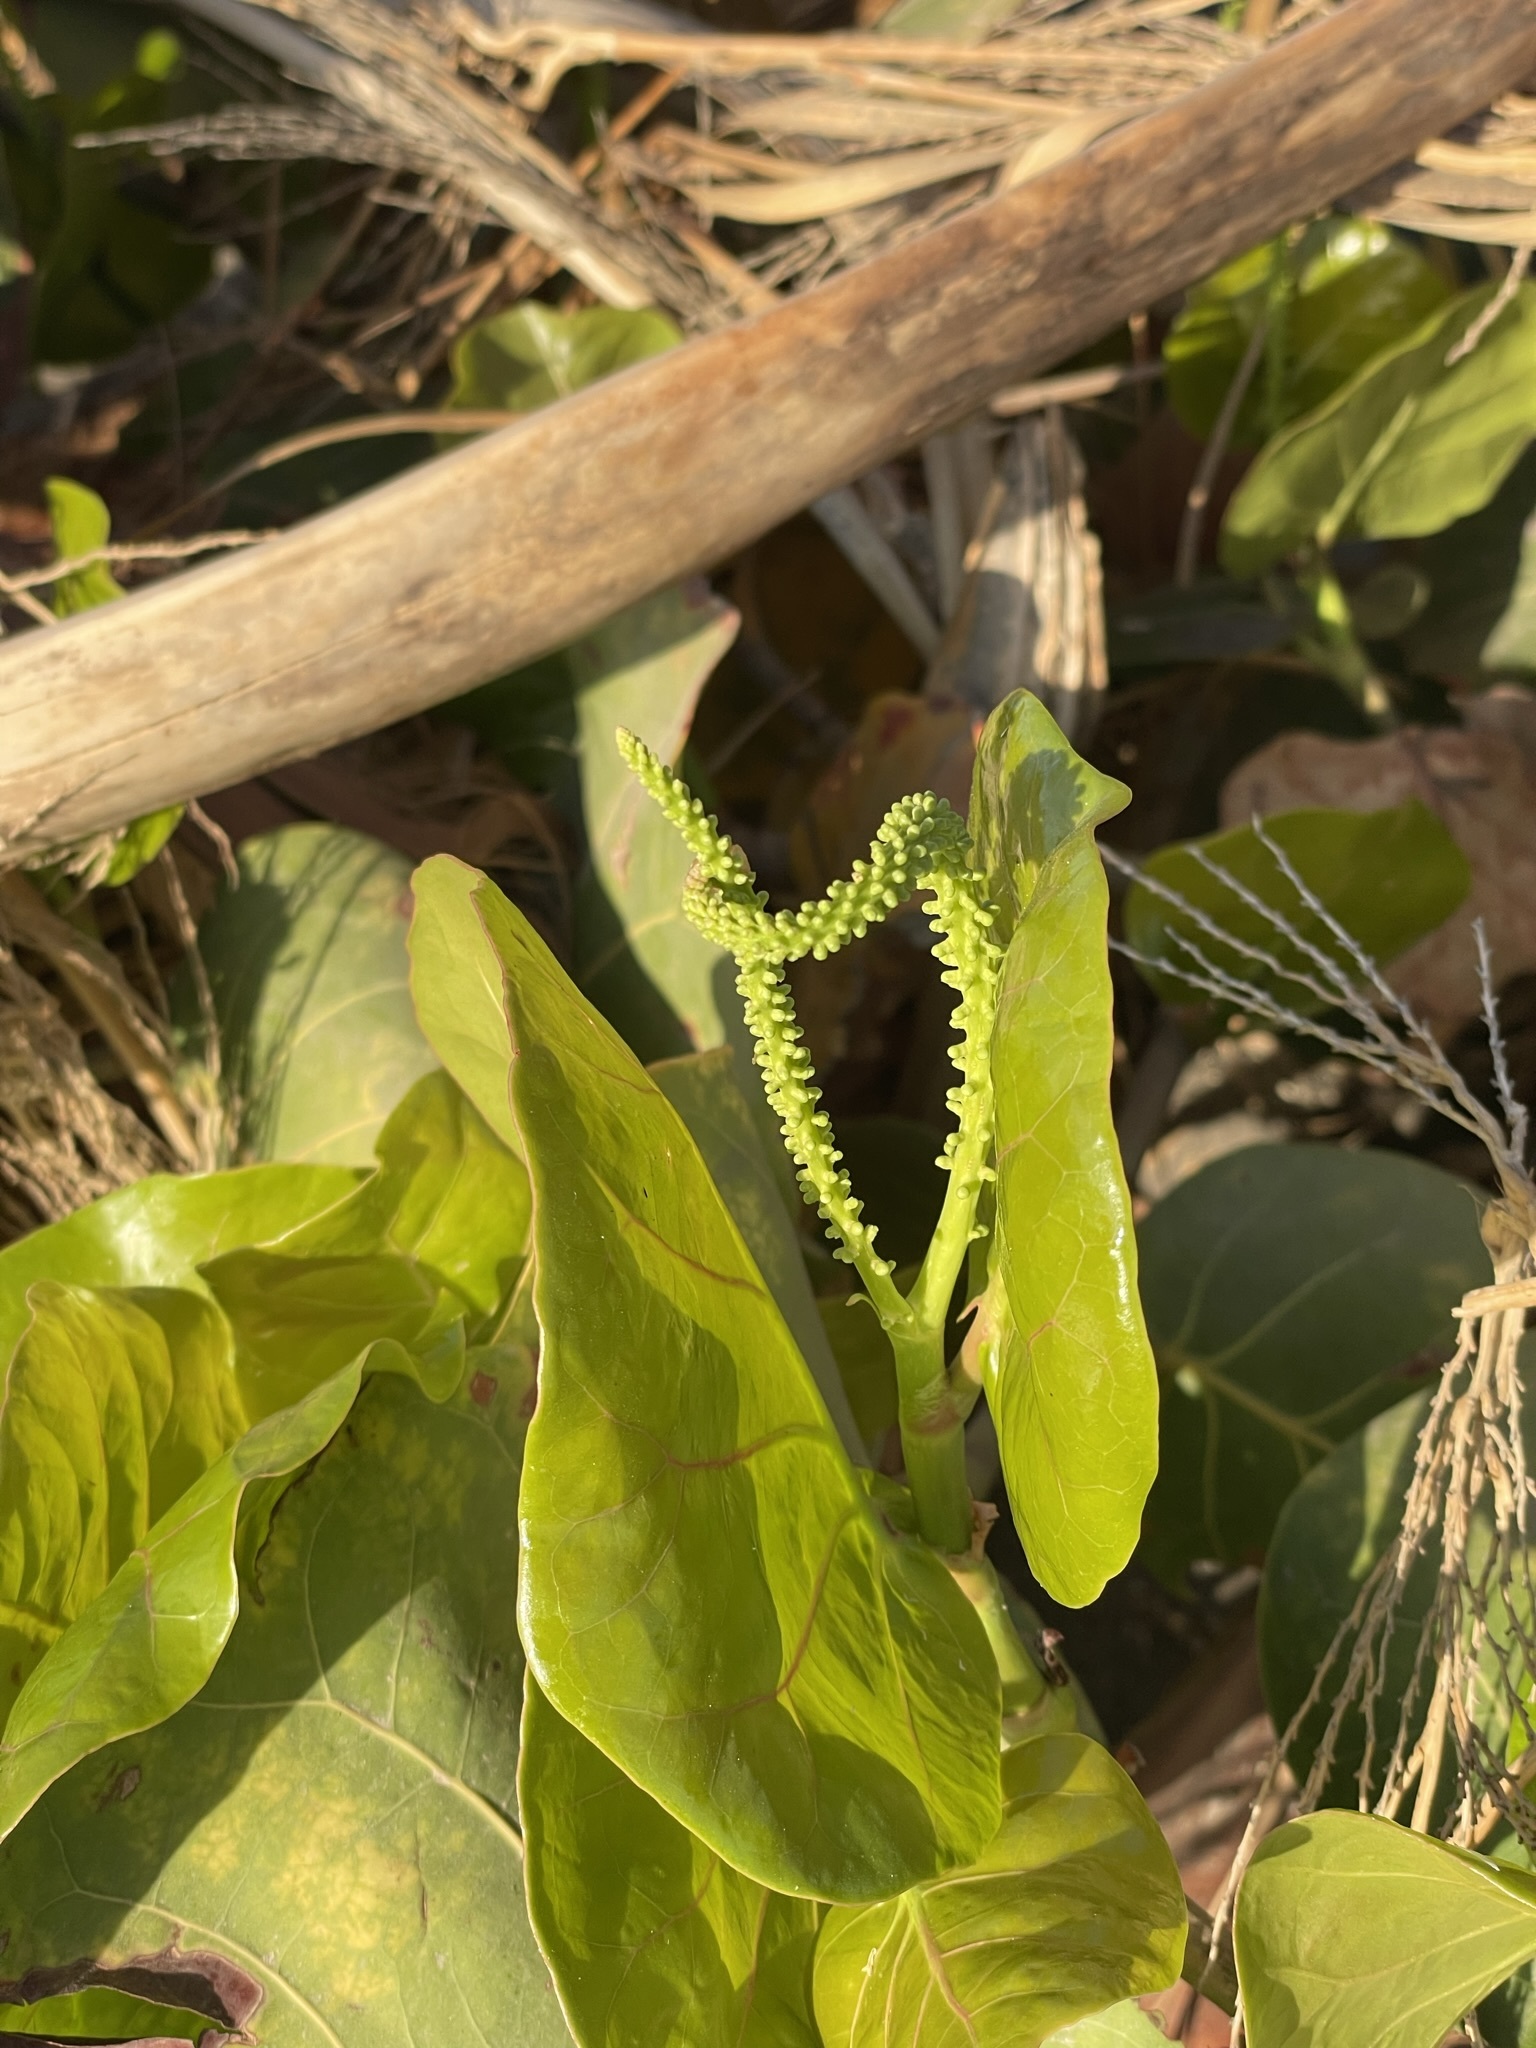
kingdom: Plantae
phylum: Tracheophyta
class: Magnoliopsida
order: Caryophyllales
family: Polygonaceae
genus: Coccoloba
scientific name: Coccoloba uvifera
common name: Seagrape
